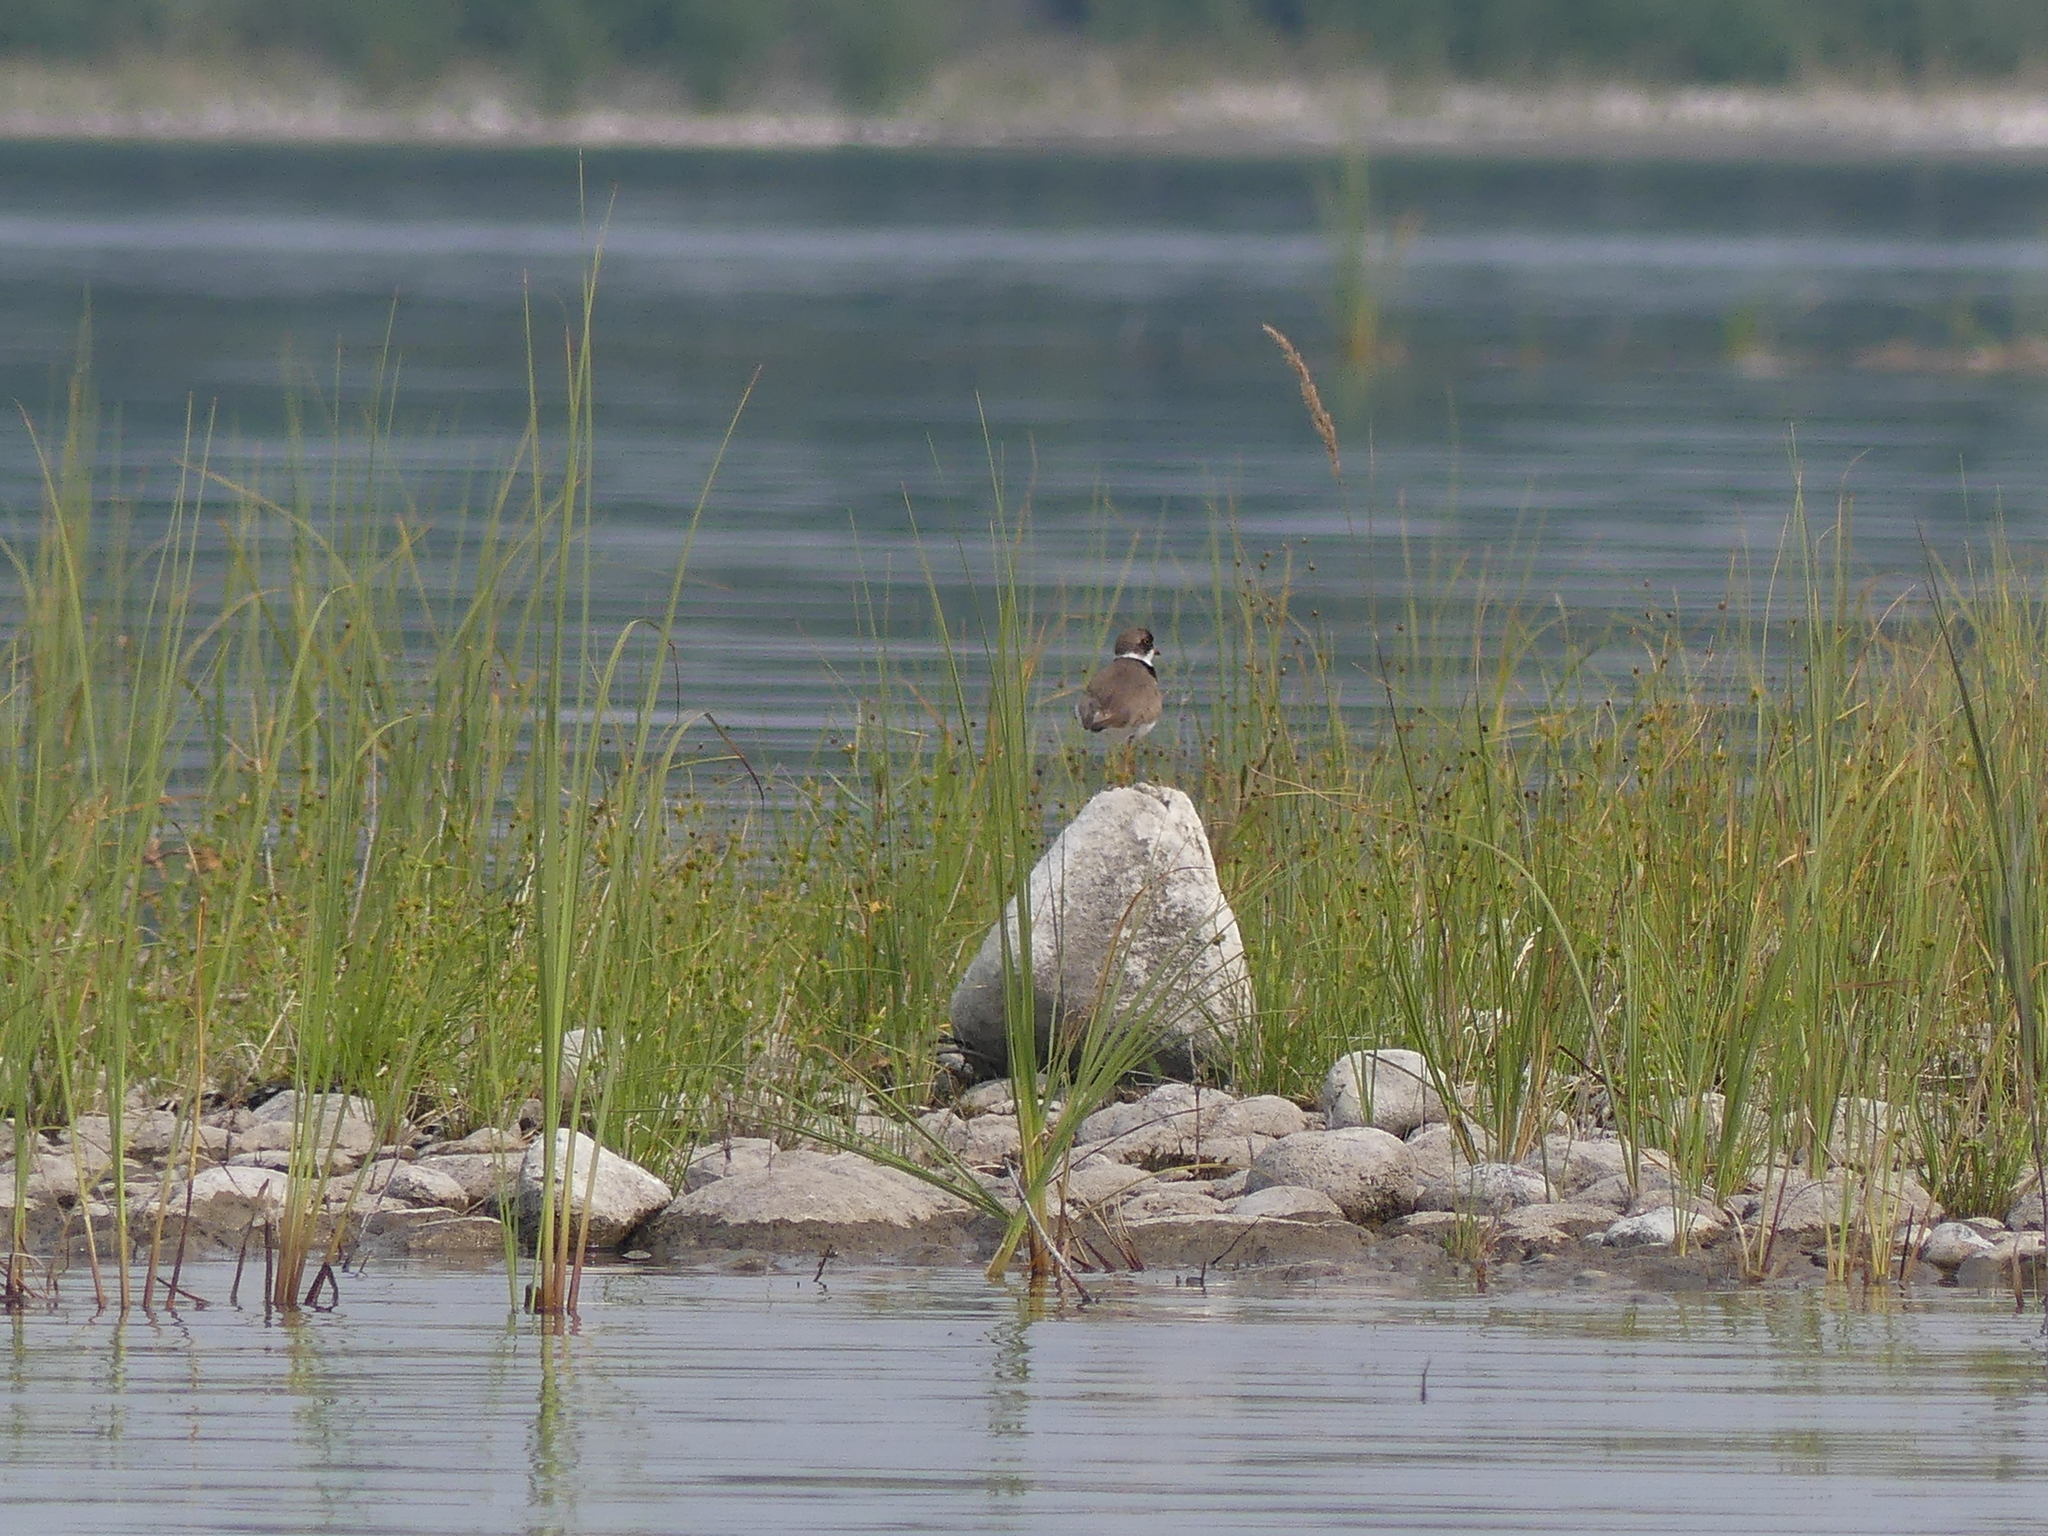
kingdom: Animalia
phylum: Chordata
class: Aves
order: Charadriiformes
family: Charadriidae
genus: Charadrius
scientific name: Charadrius semipalmatus
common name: Semipalmated plover
